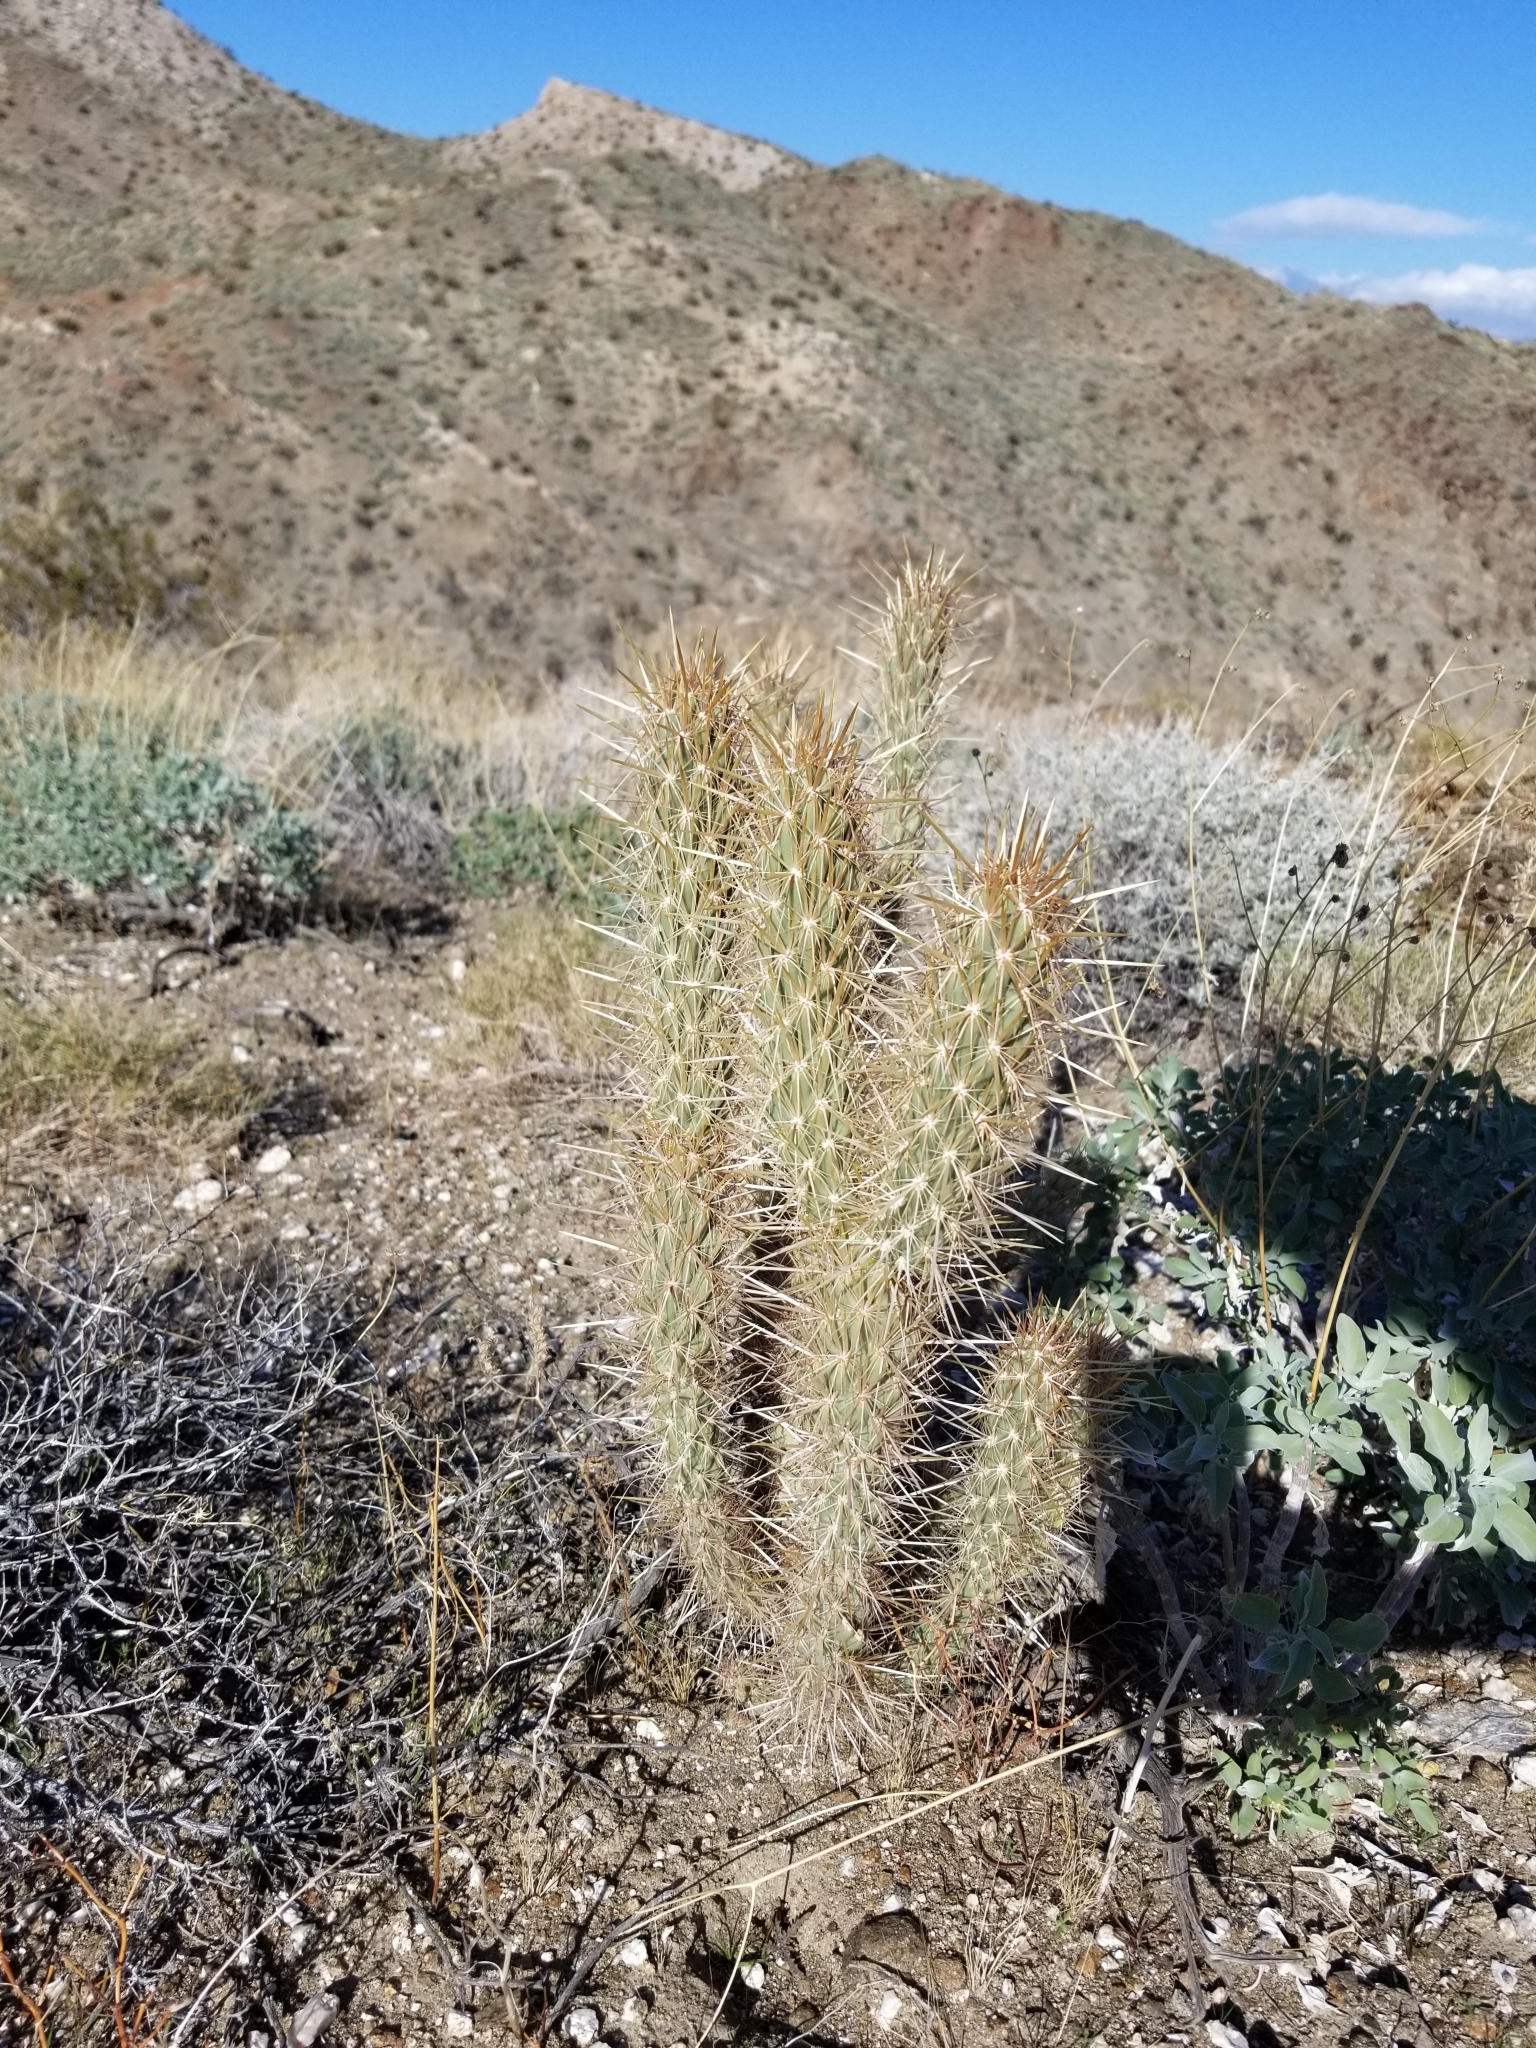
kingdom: Plantae
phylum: Tracheophyta
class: Magnoliopsida
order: Caryophyllales
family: Cactaceae
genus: Cylindropuntia
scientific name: Cylindropuntia ganderi
